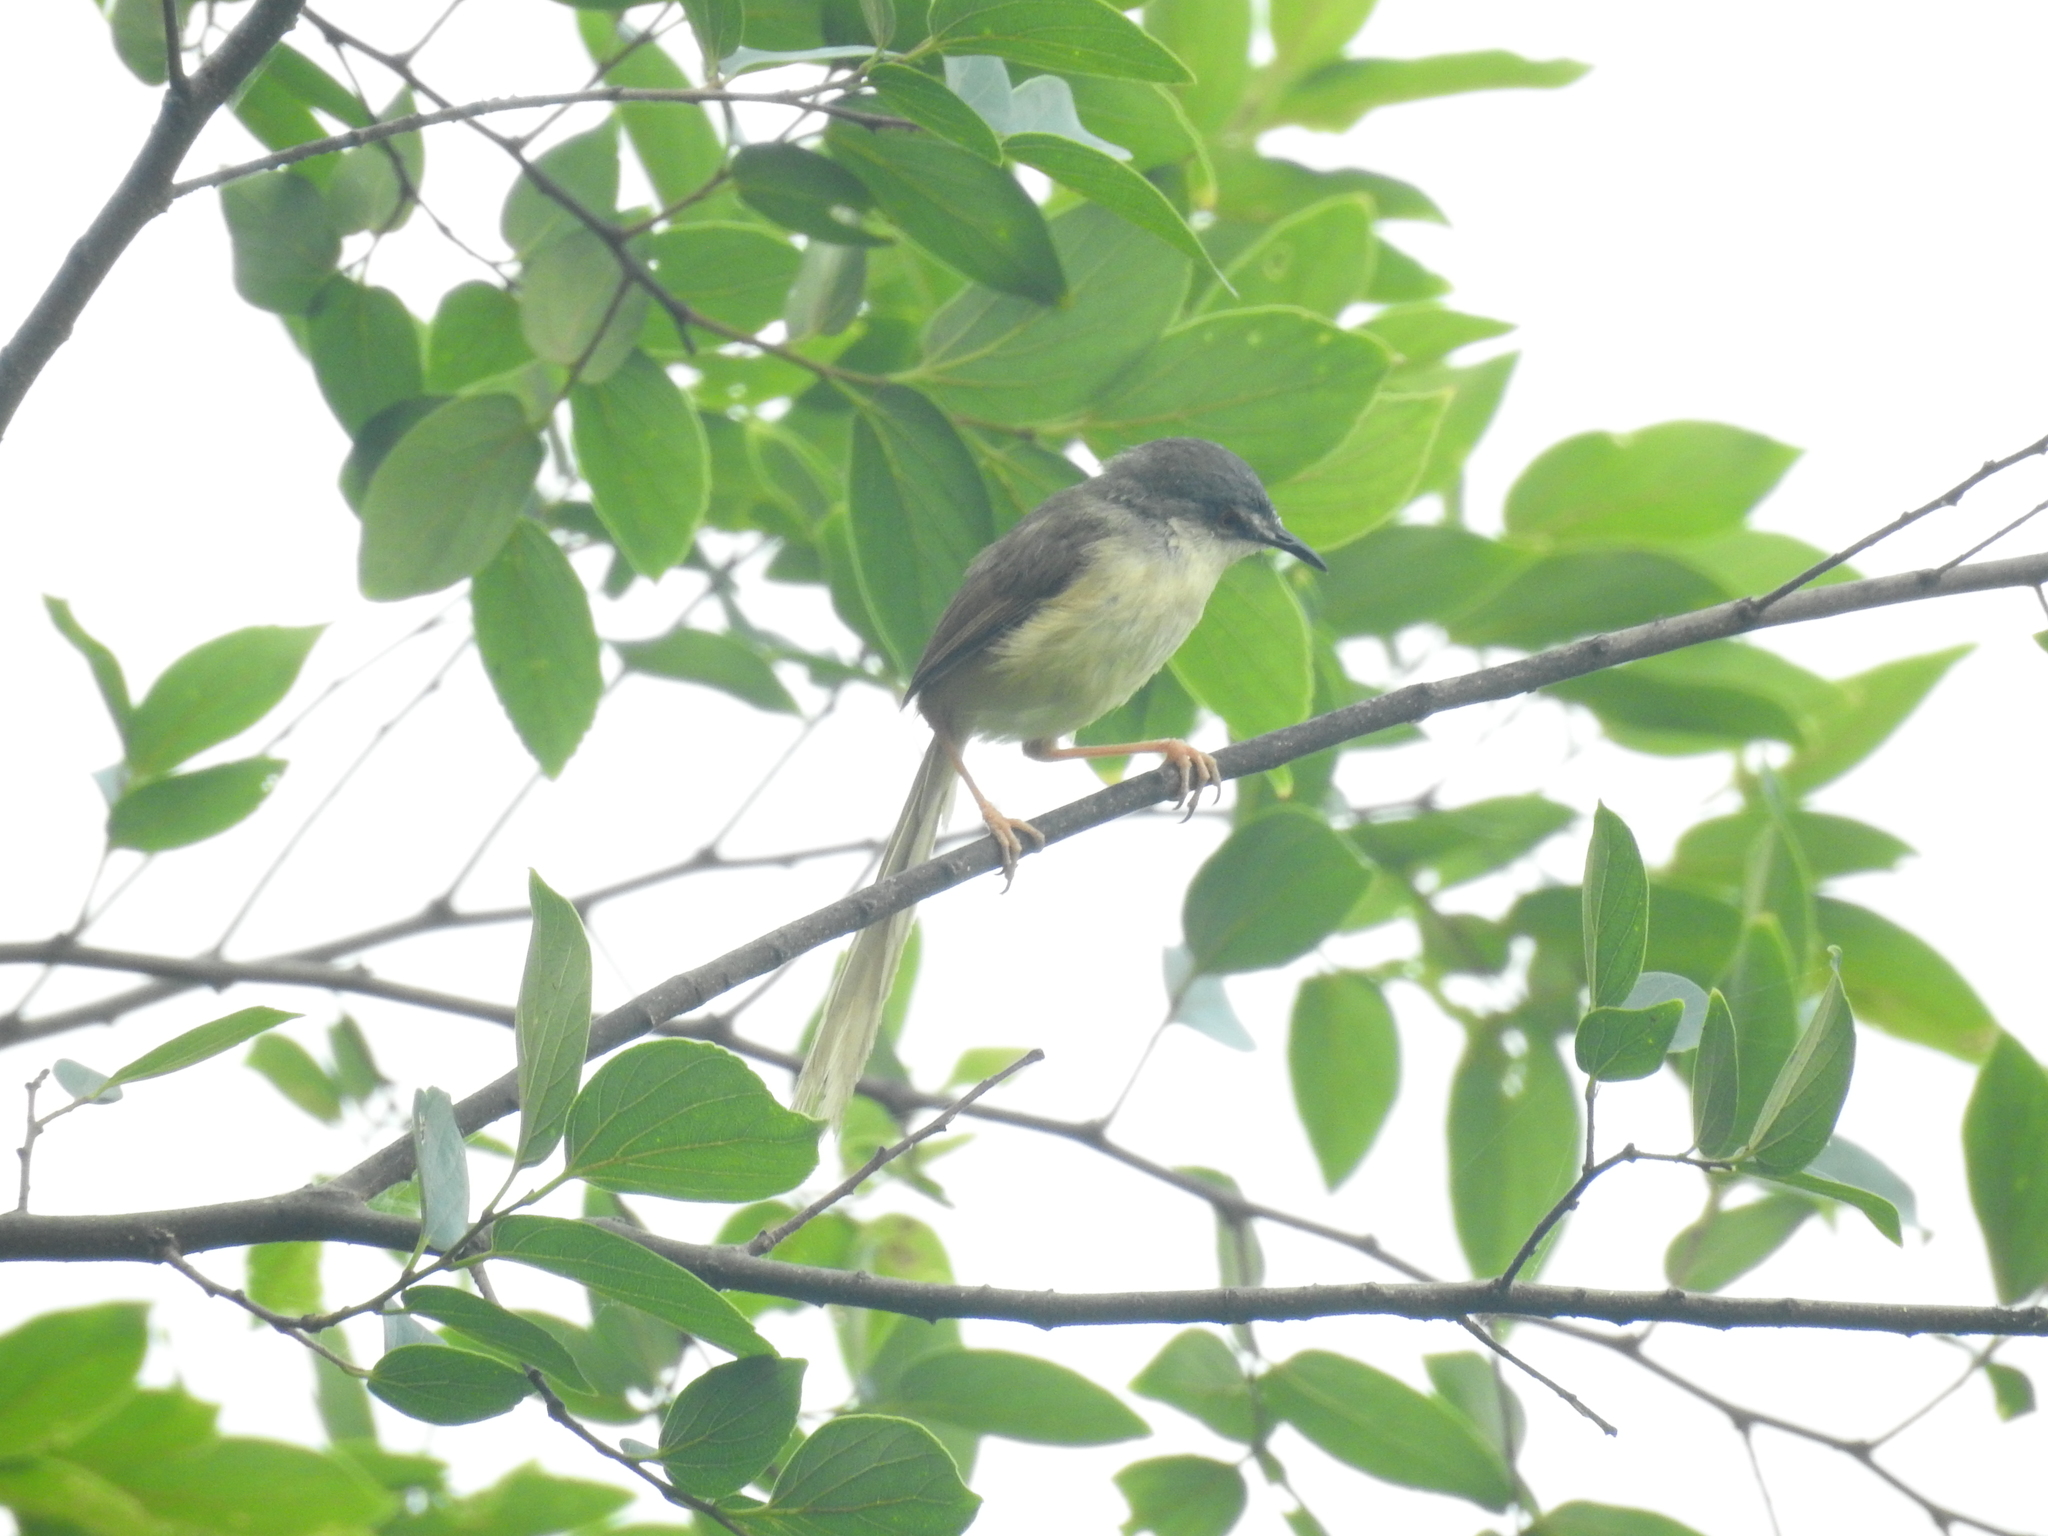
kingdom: Animalia
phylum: Chordata
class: Aves
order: Passeriformes
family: Cisticolidae
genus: Prinia
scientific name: Prinia flaviventris
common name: Yellow-bellied prinia
